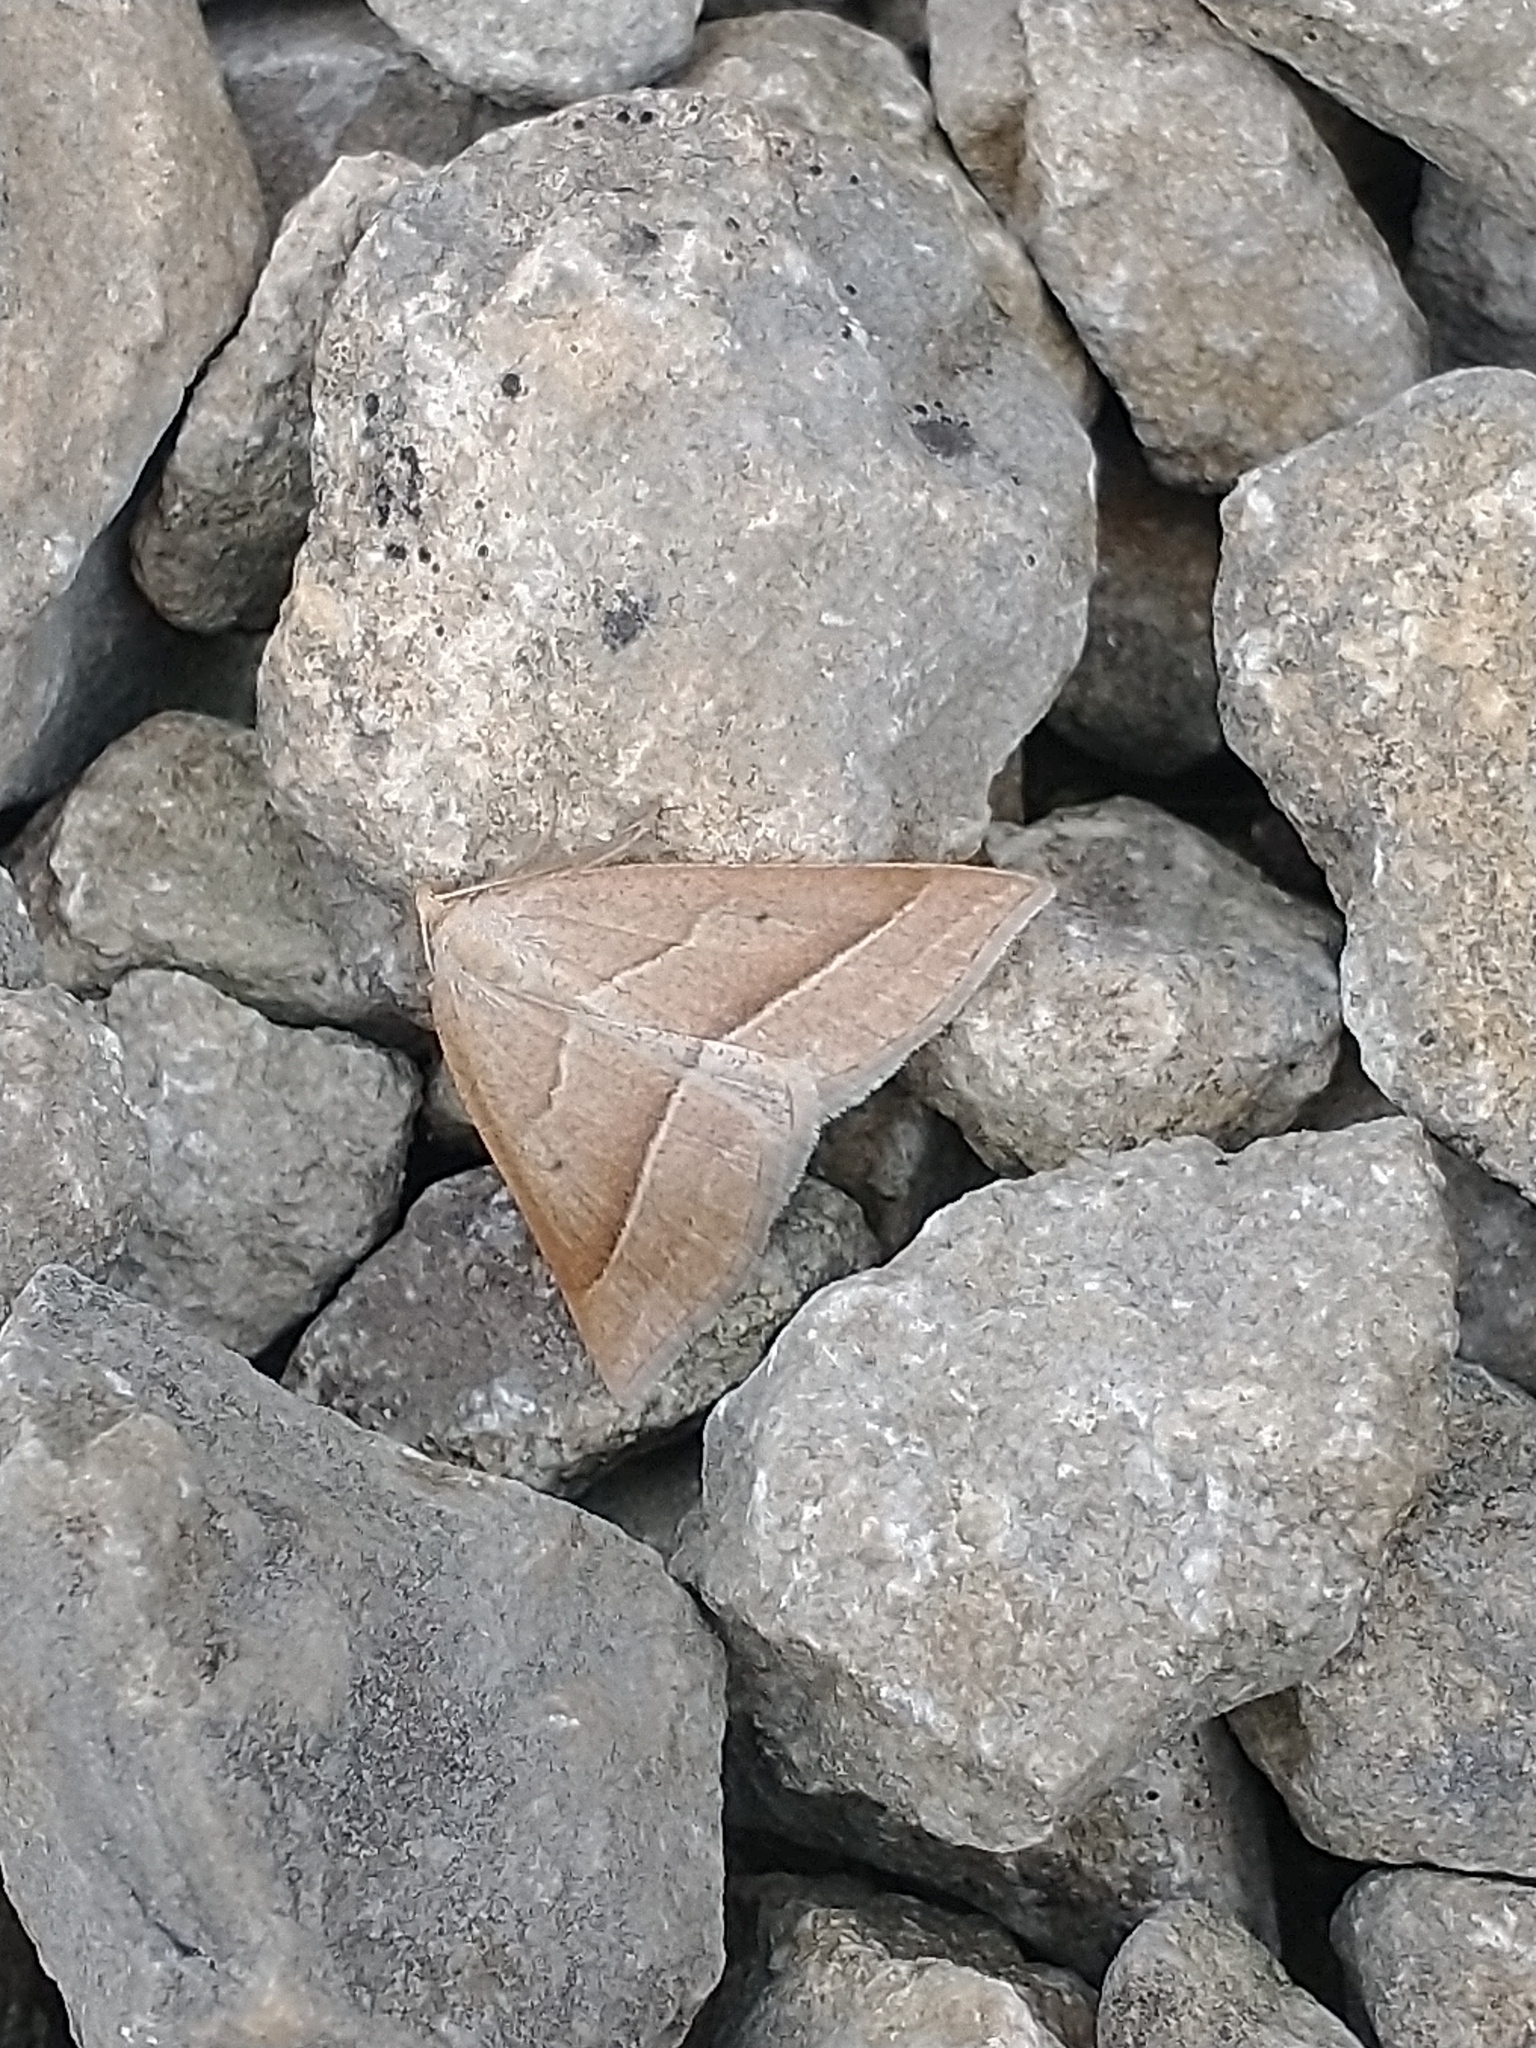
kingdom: Animalia
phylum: Arthropoda
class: Insecta
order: Lepidoptera
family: Pterophoridae
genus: Pterophorus
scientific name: Pterophorus Petrophora chlorosata
